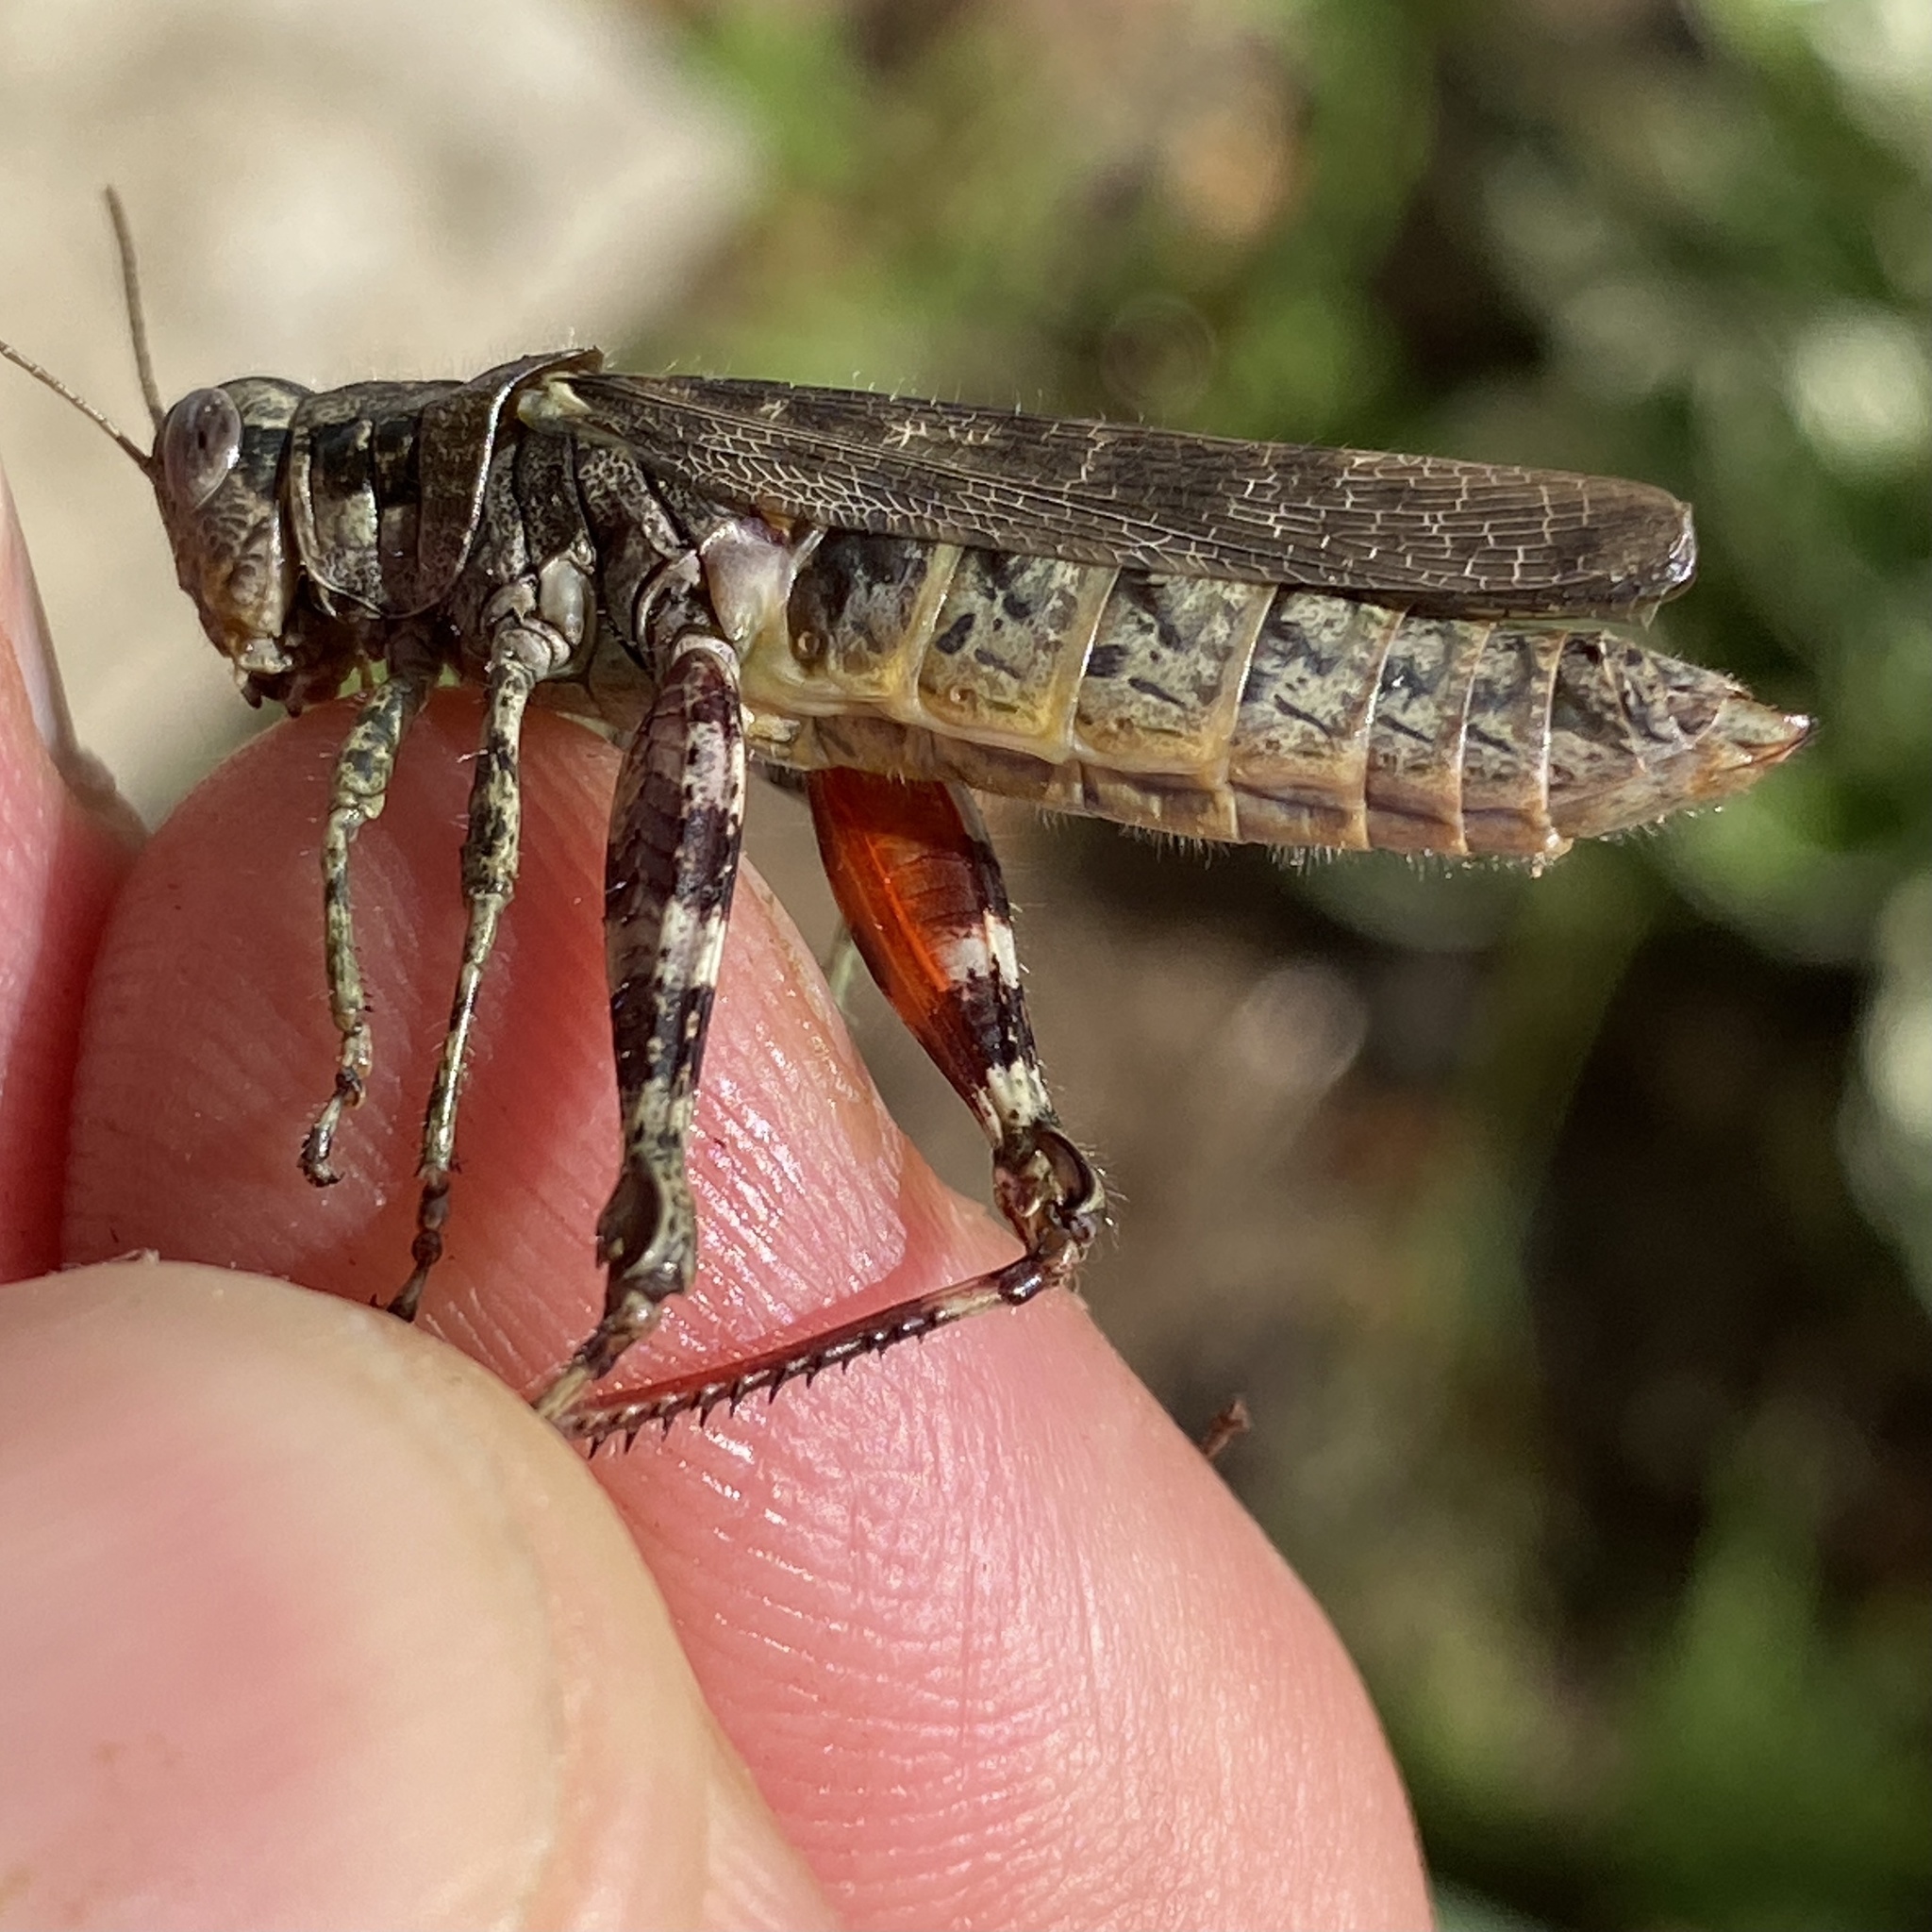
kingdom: Animalia
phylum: Arthropoda
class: Insecta
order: Orthoptera
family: Acrididae
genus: Melanoplus
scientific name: Melanoplus punctulatus
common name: Pine-tree spur-throat grasshopper
